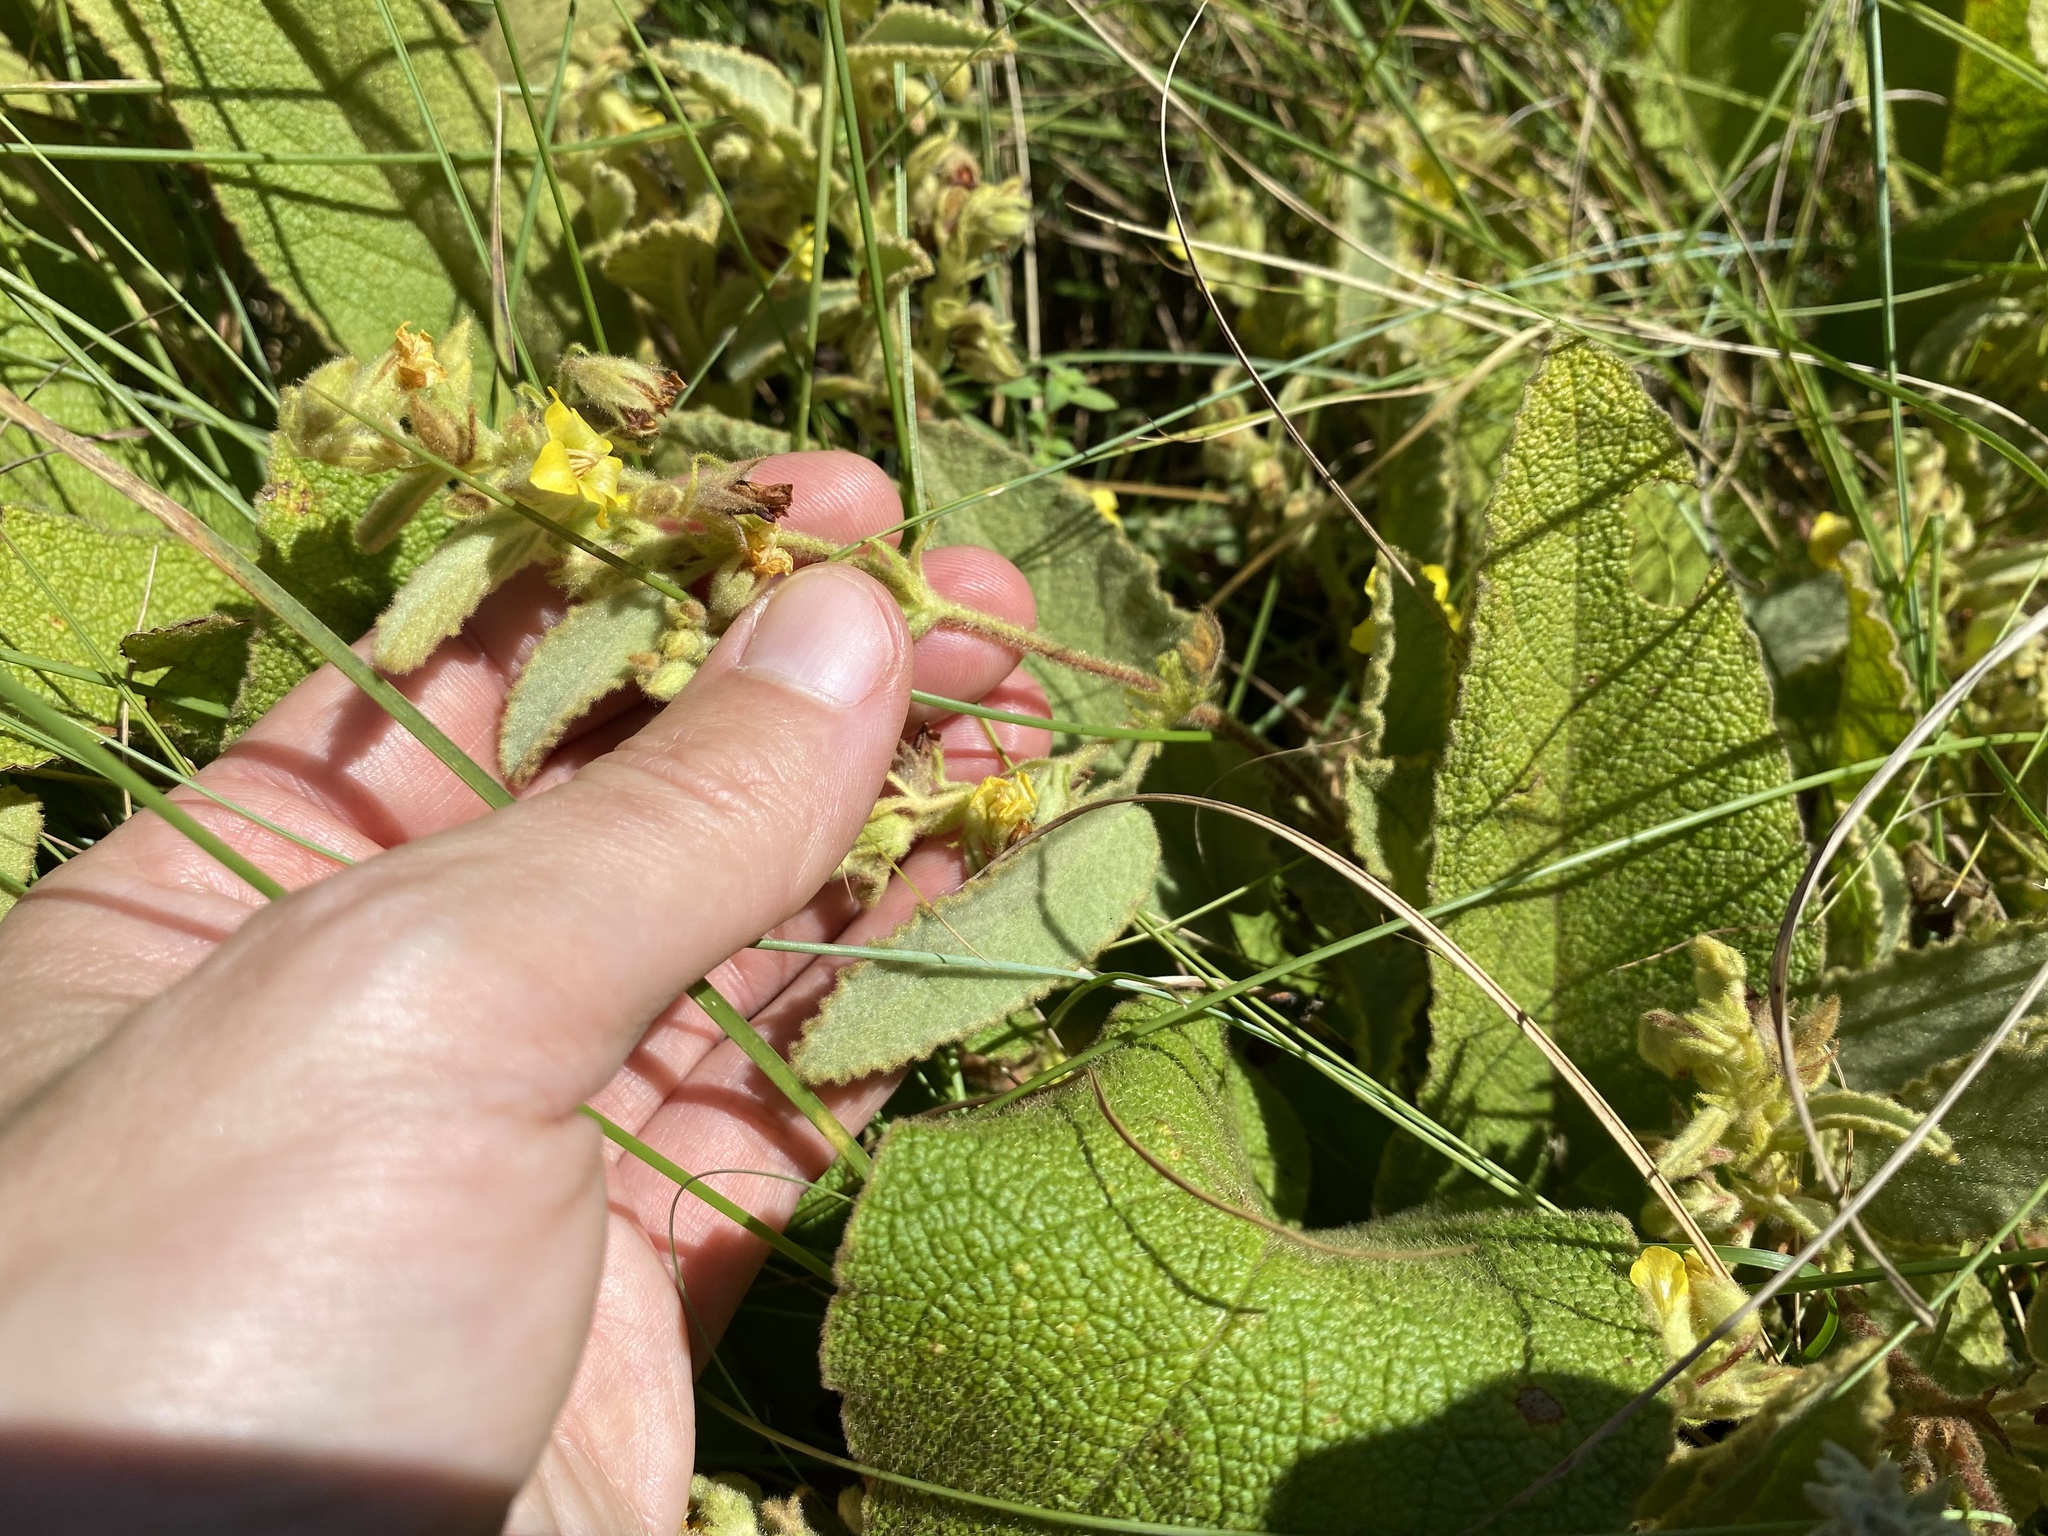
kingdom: Plantae
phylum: Tracheophyta
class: Magnoliopsida
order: Malvales
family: Malvaceae
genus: Hermannia
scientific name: Hermannia gerardii
